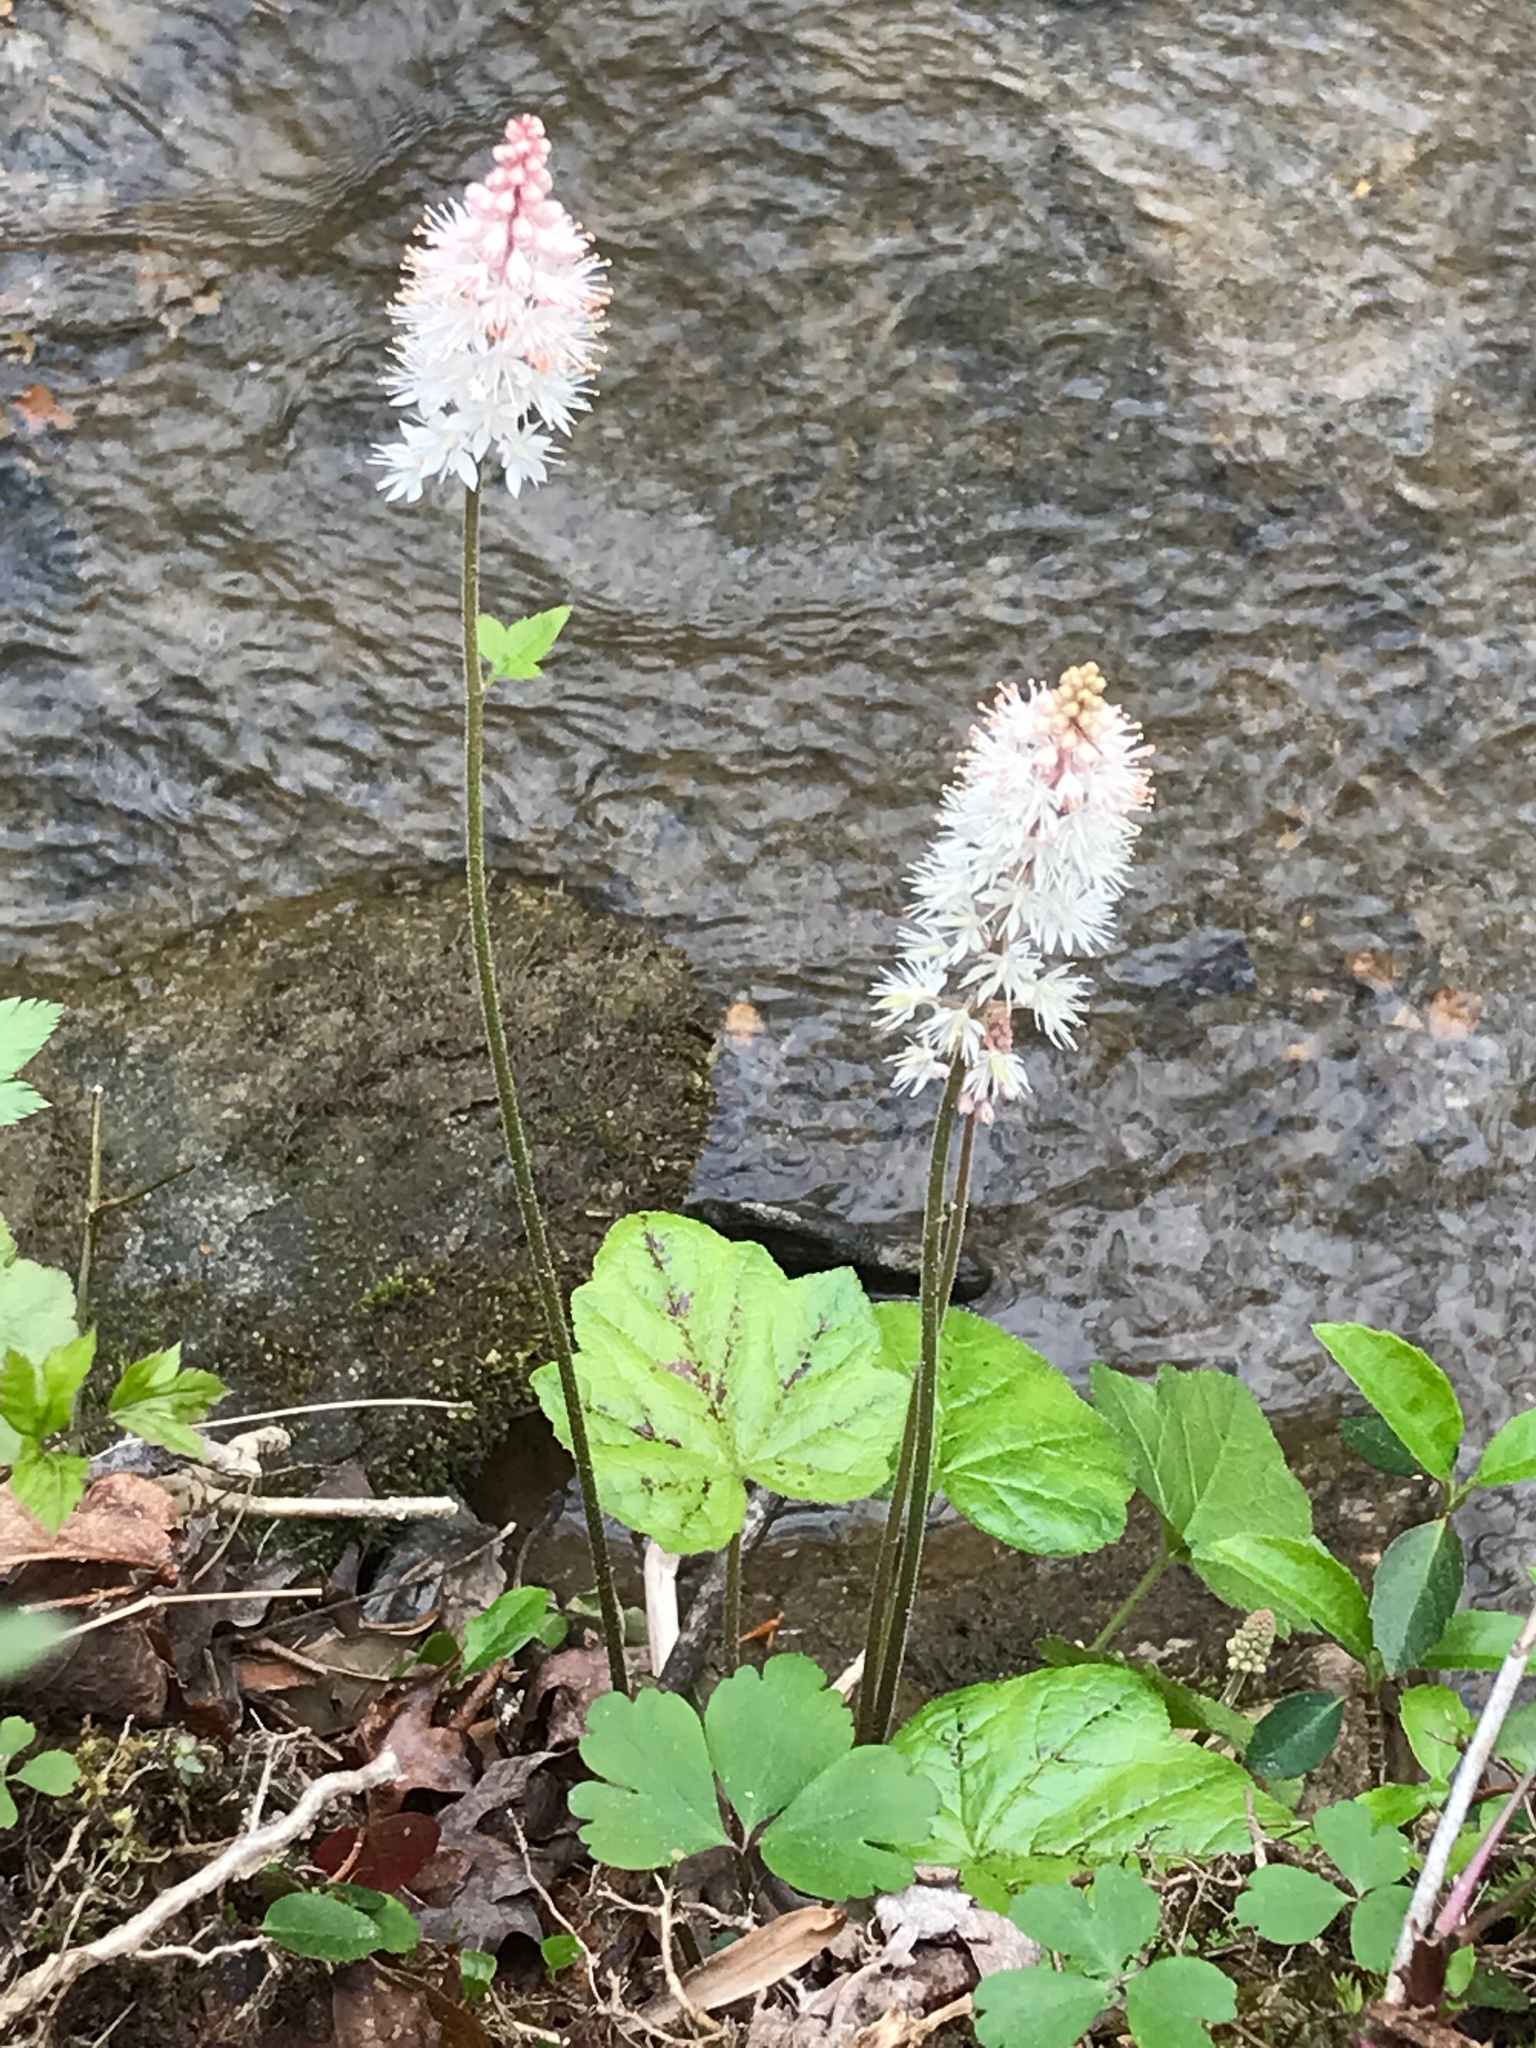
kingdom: Plantae
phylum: Tracheophyta
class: Magnoliopsida
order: Saxifragales
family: Saxifragaceae
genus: Tiarella
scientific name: Tiarella austrina
